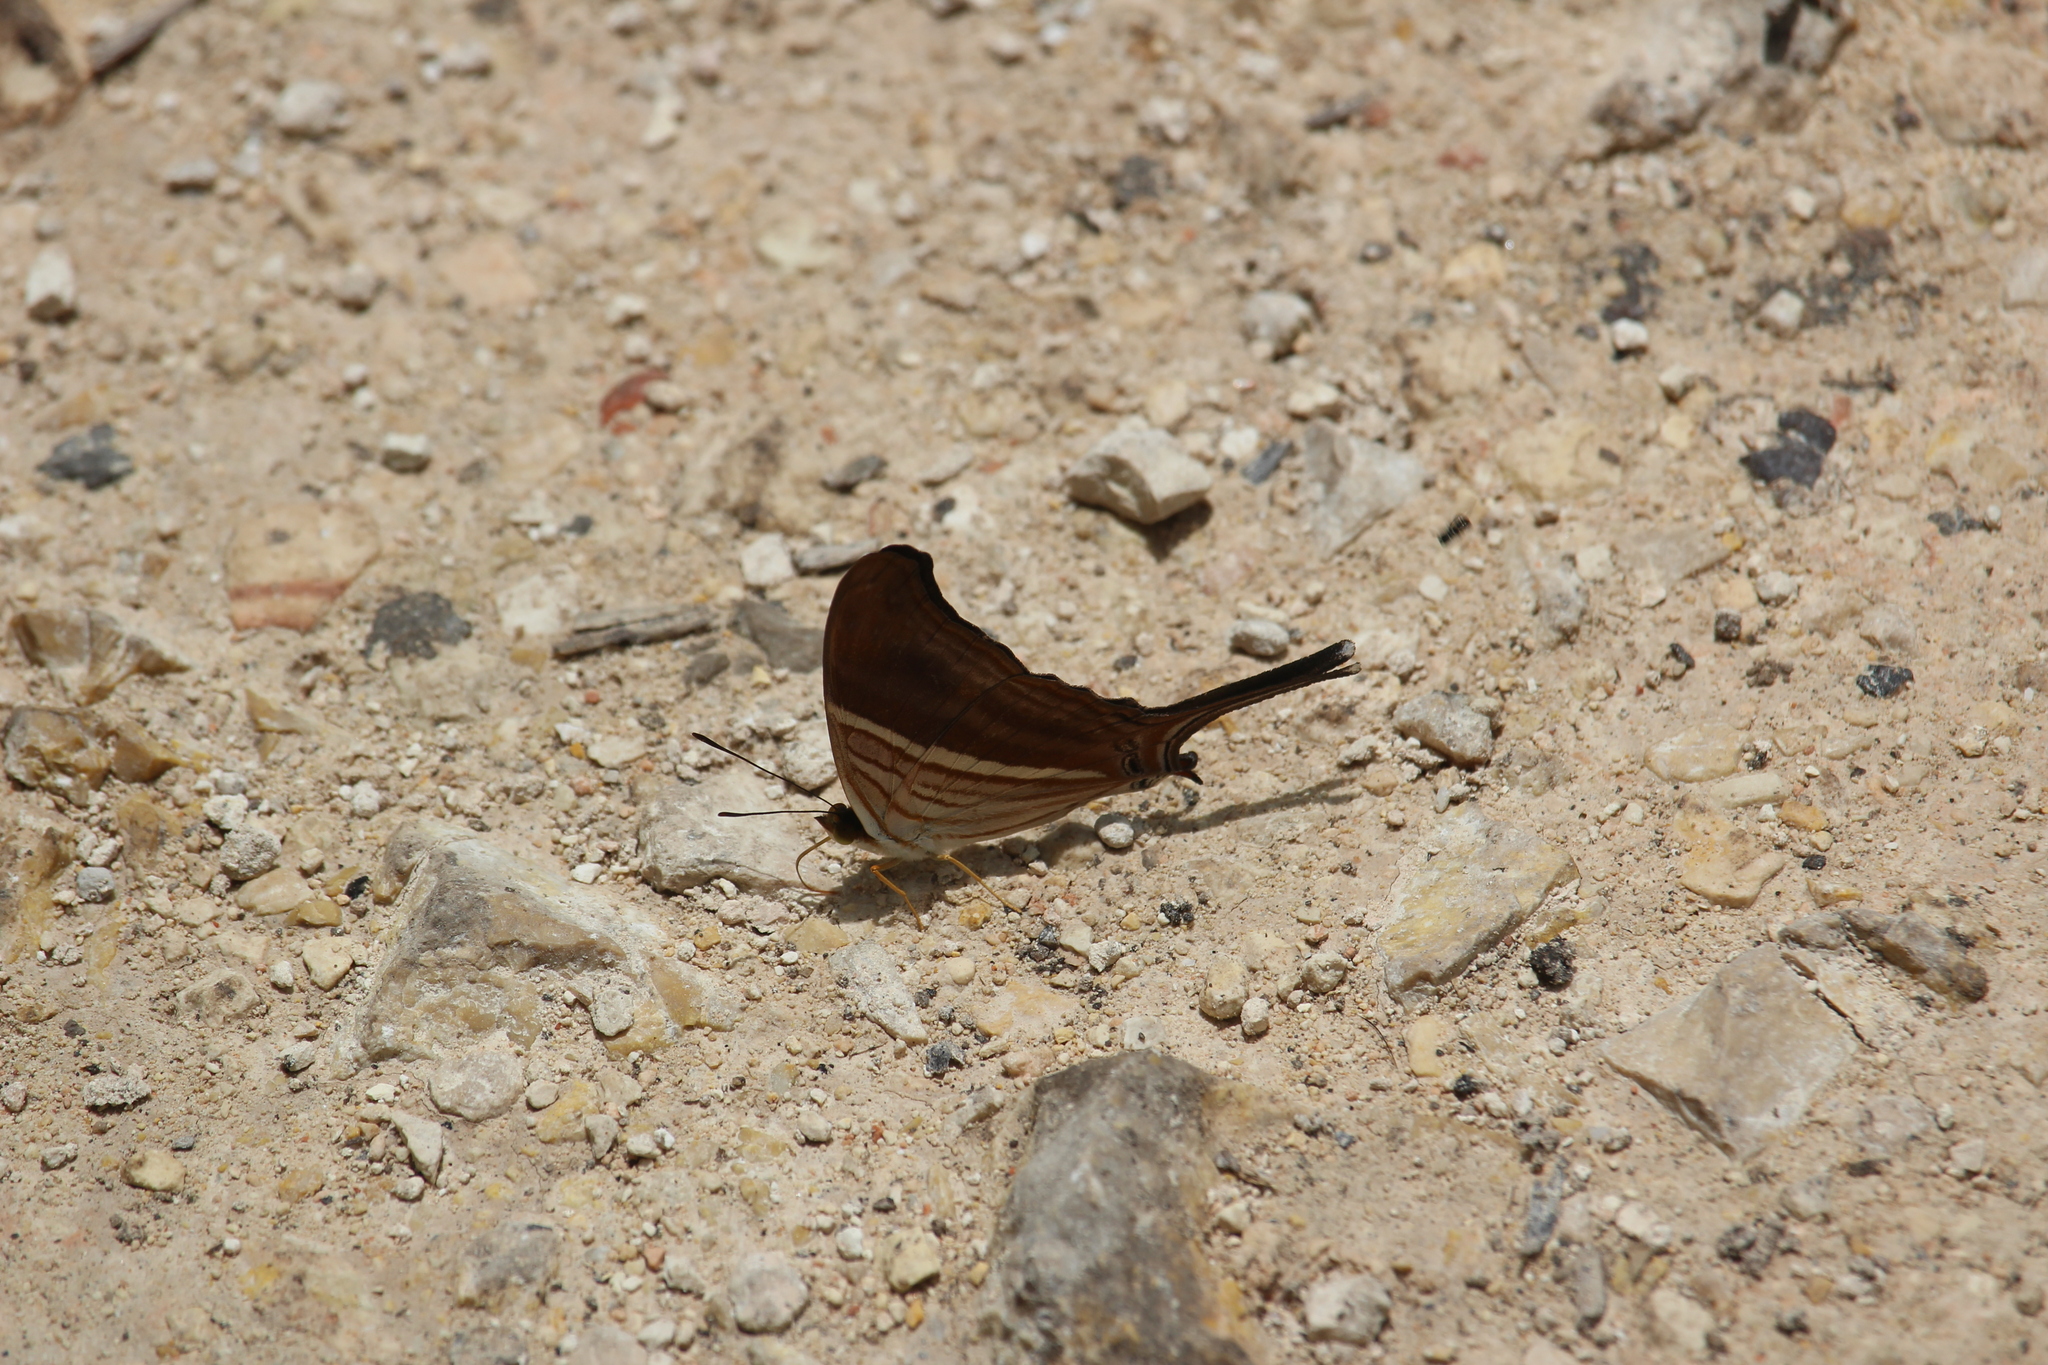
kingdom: Animalia
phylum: Arthropoda
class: Insecta
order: Lepidoptera
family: Nymphalidae
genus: Marpesia
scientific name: Marpesia chiron
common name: Many-banded daggerwing
